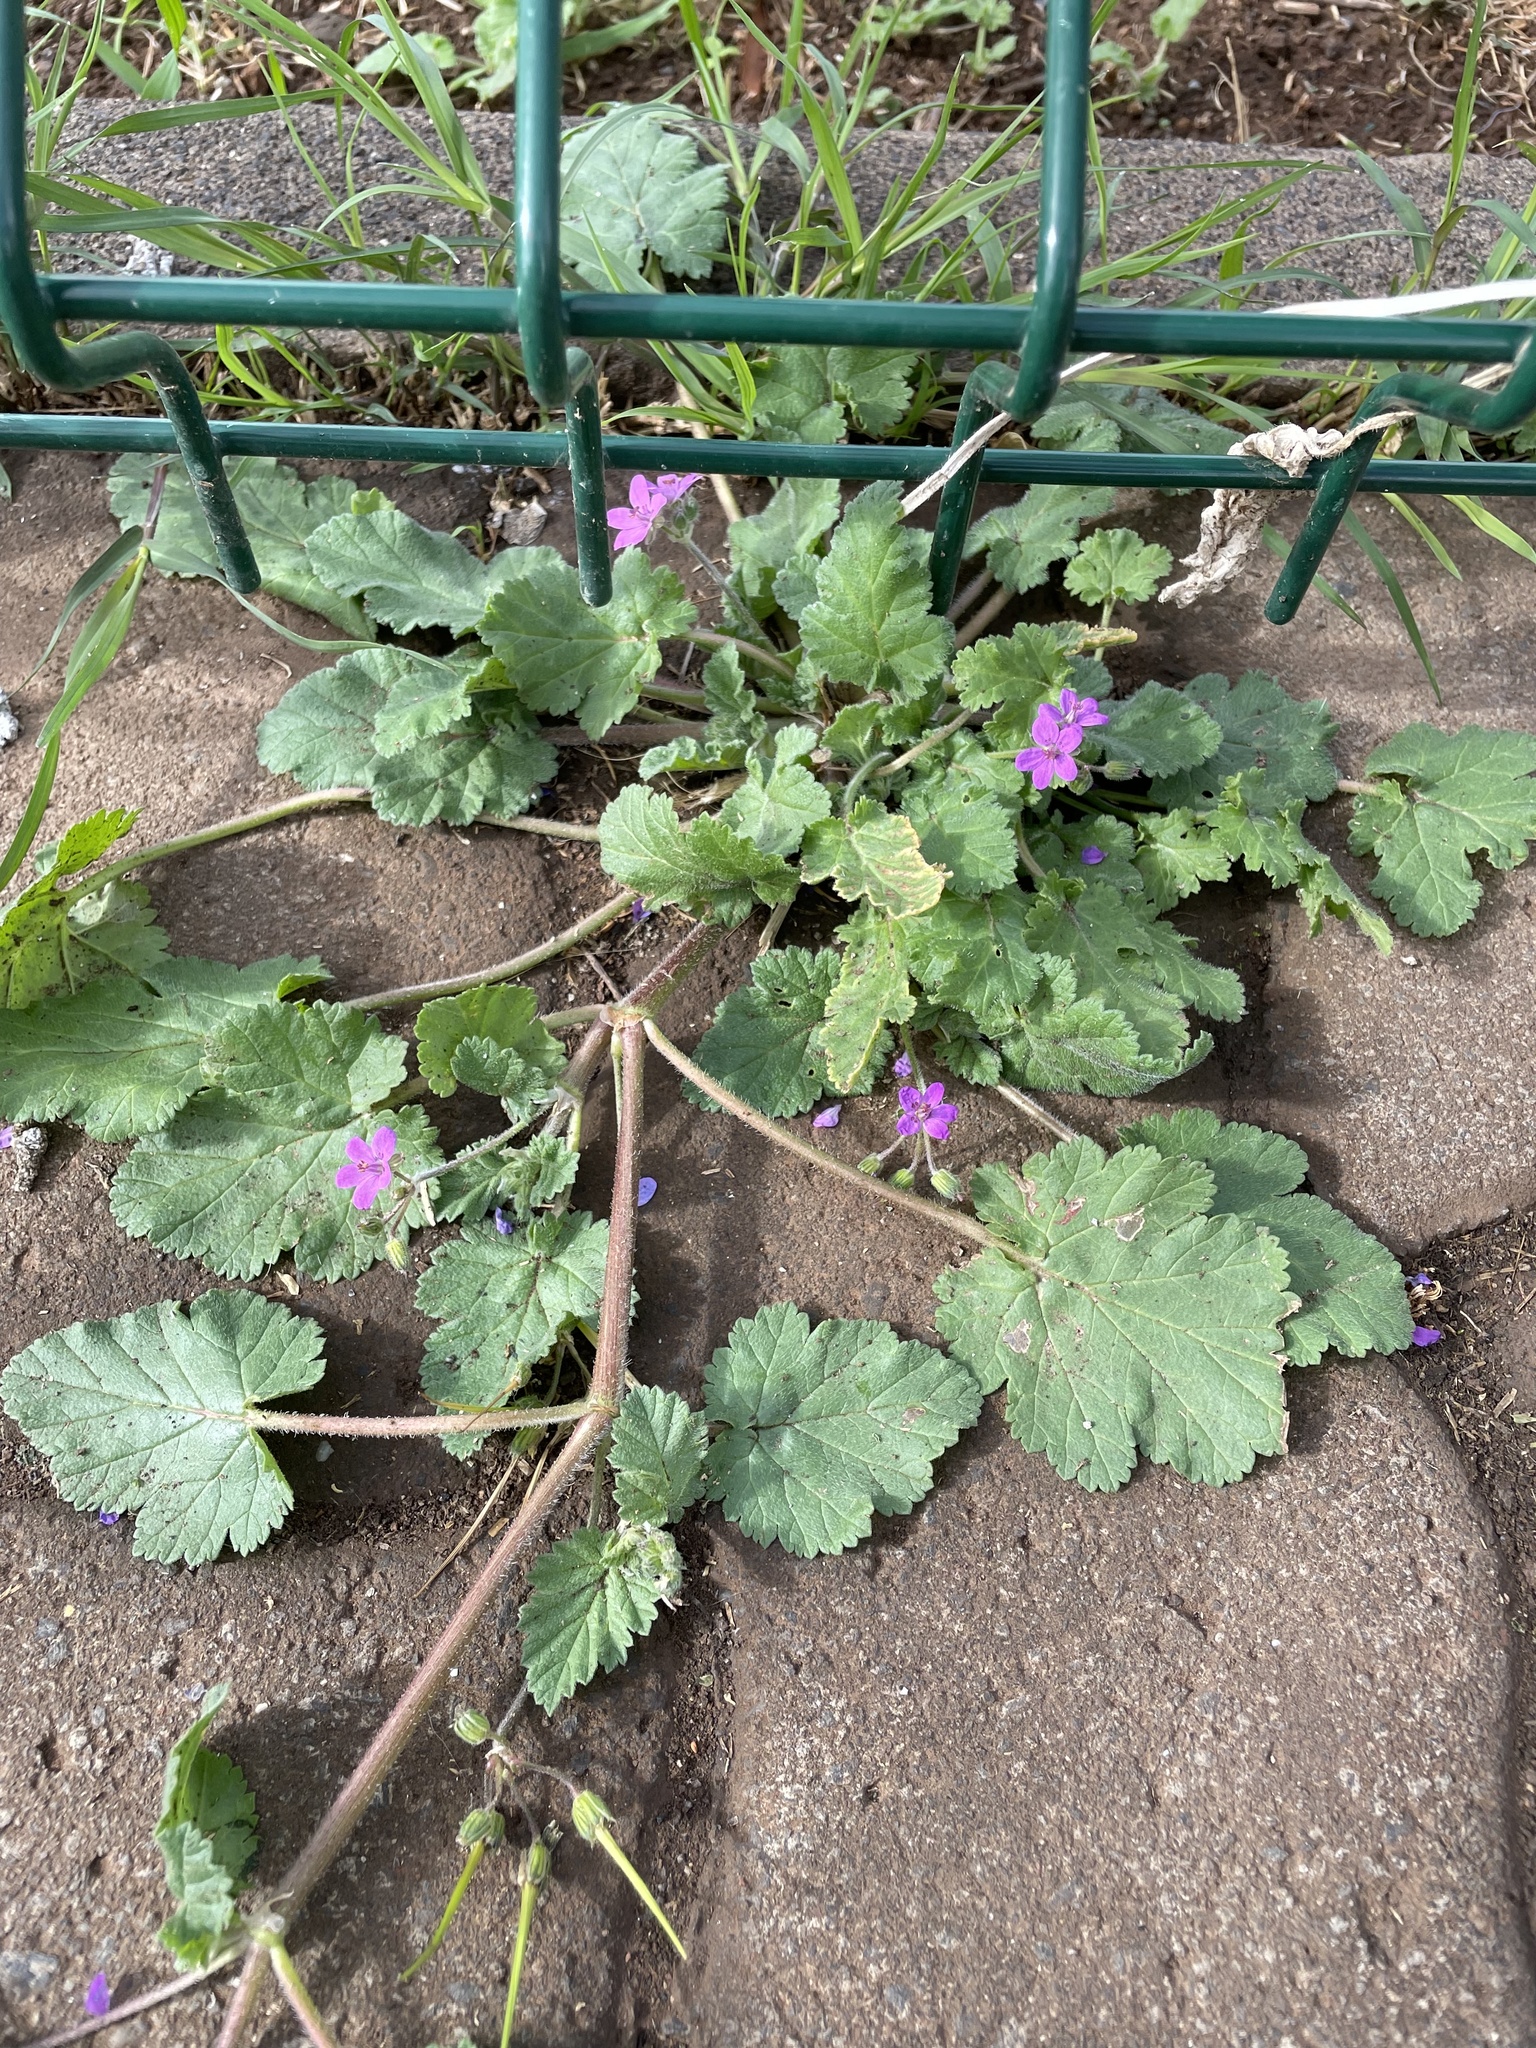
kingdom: Plantae
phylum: Tracheophyta
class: Magnoliopsida
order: Geraniales
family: Geraniaceae
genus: Erodium
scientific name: Erodium malacoides
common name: Soft stork's-bill
